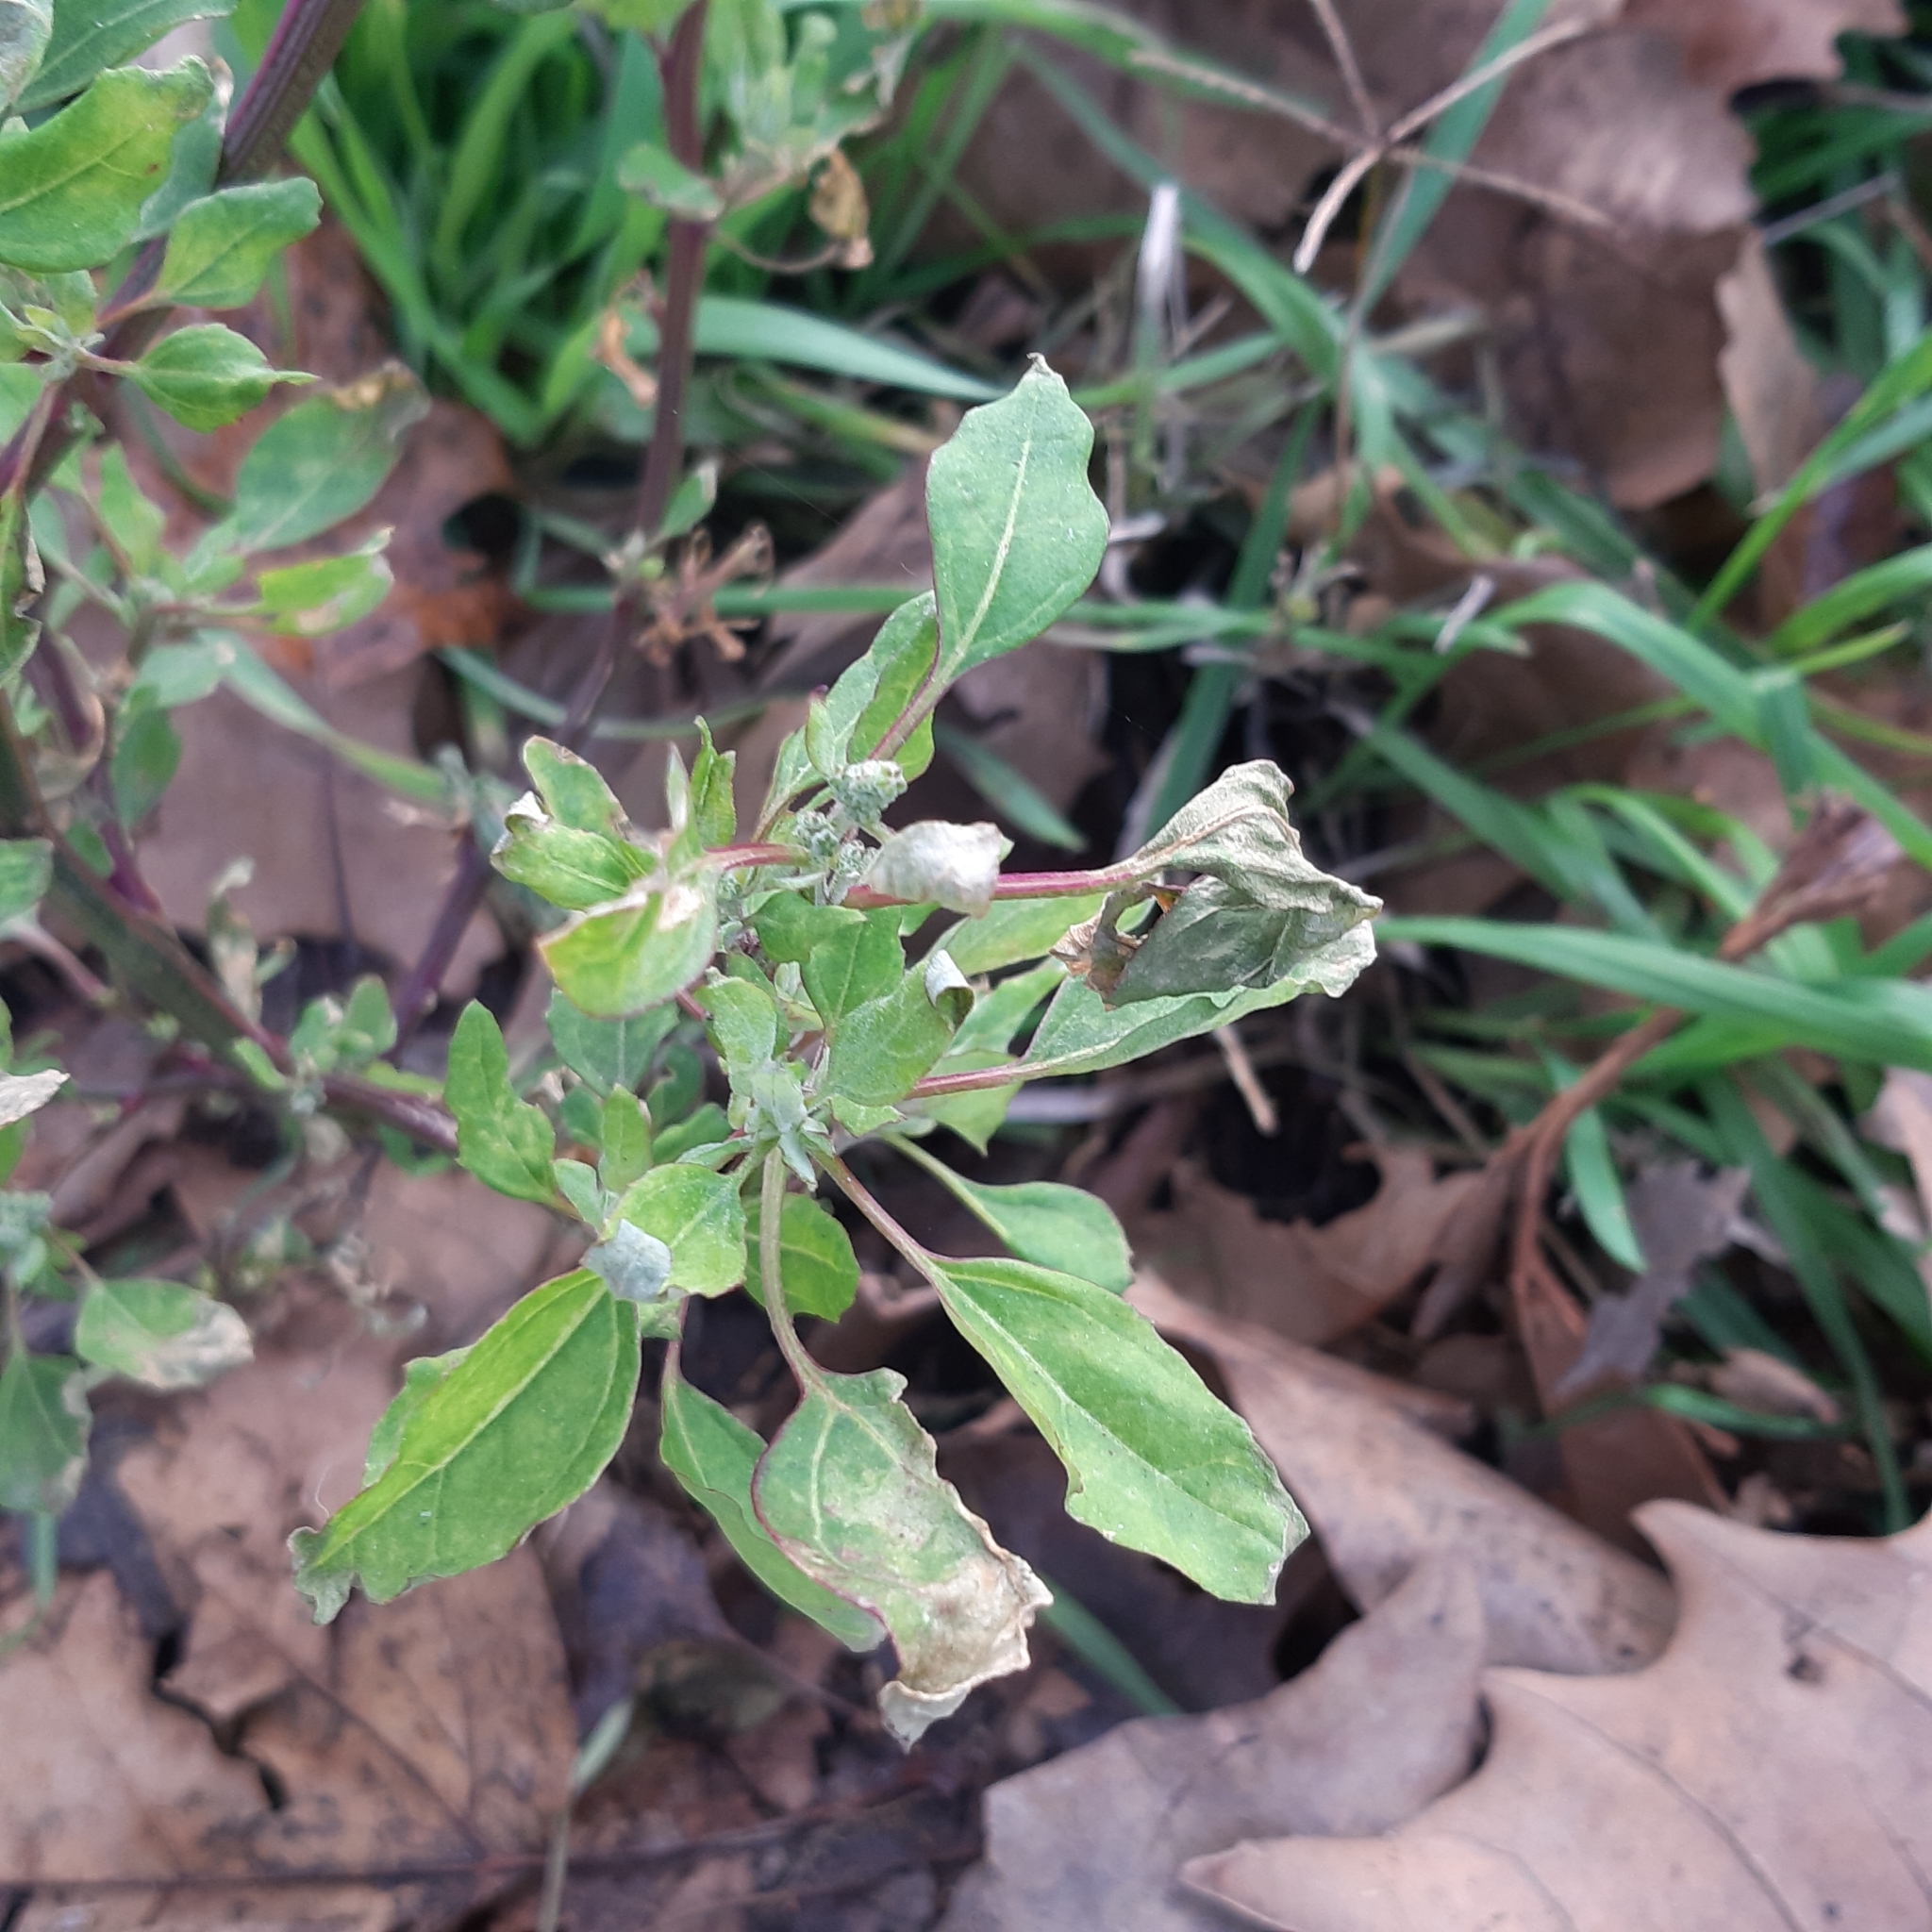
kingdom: Plantae
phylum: Tracheophyta
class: Magnoliopsida
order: Caryophyllales
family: Amaranthaceae
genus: Chenopodium
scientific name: Chenopodium album
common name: Fat-hen
